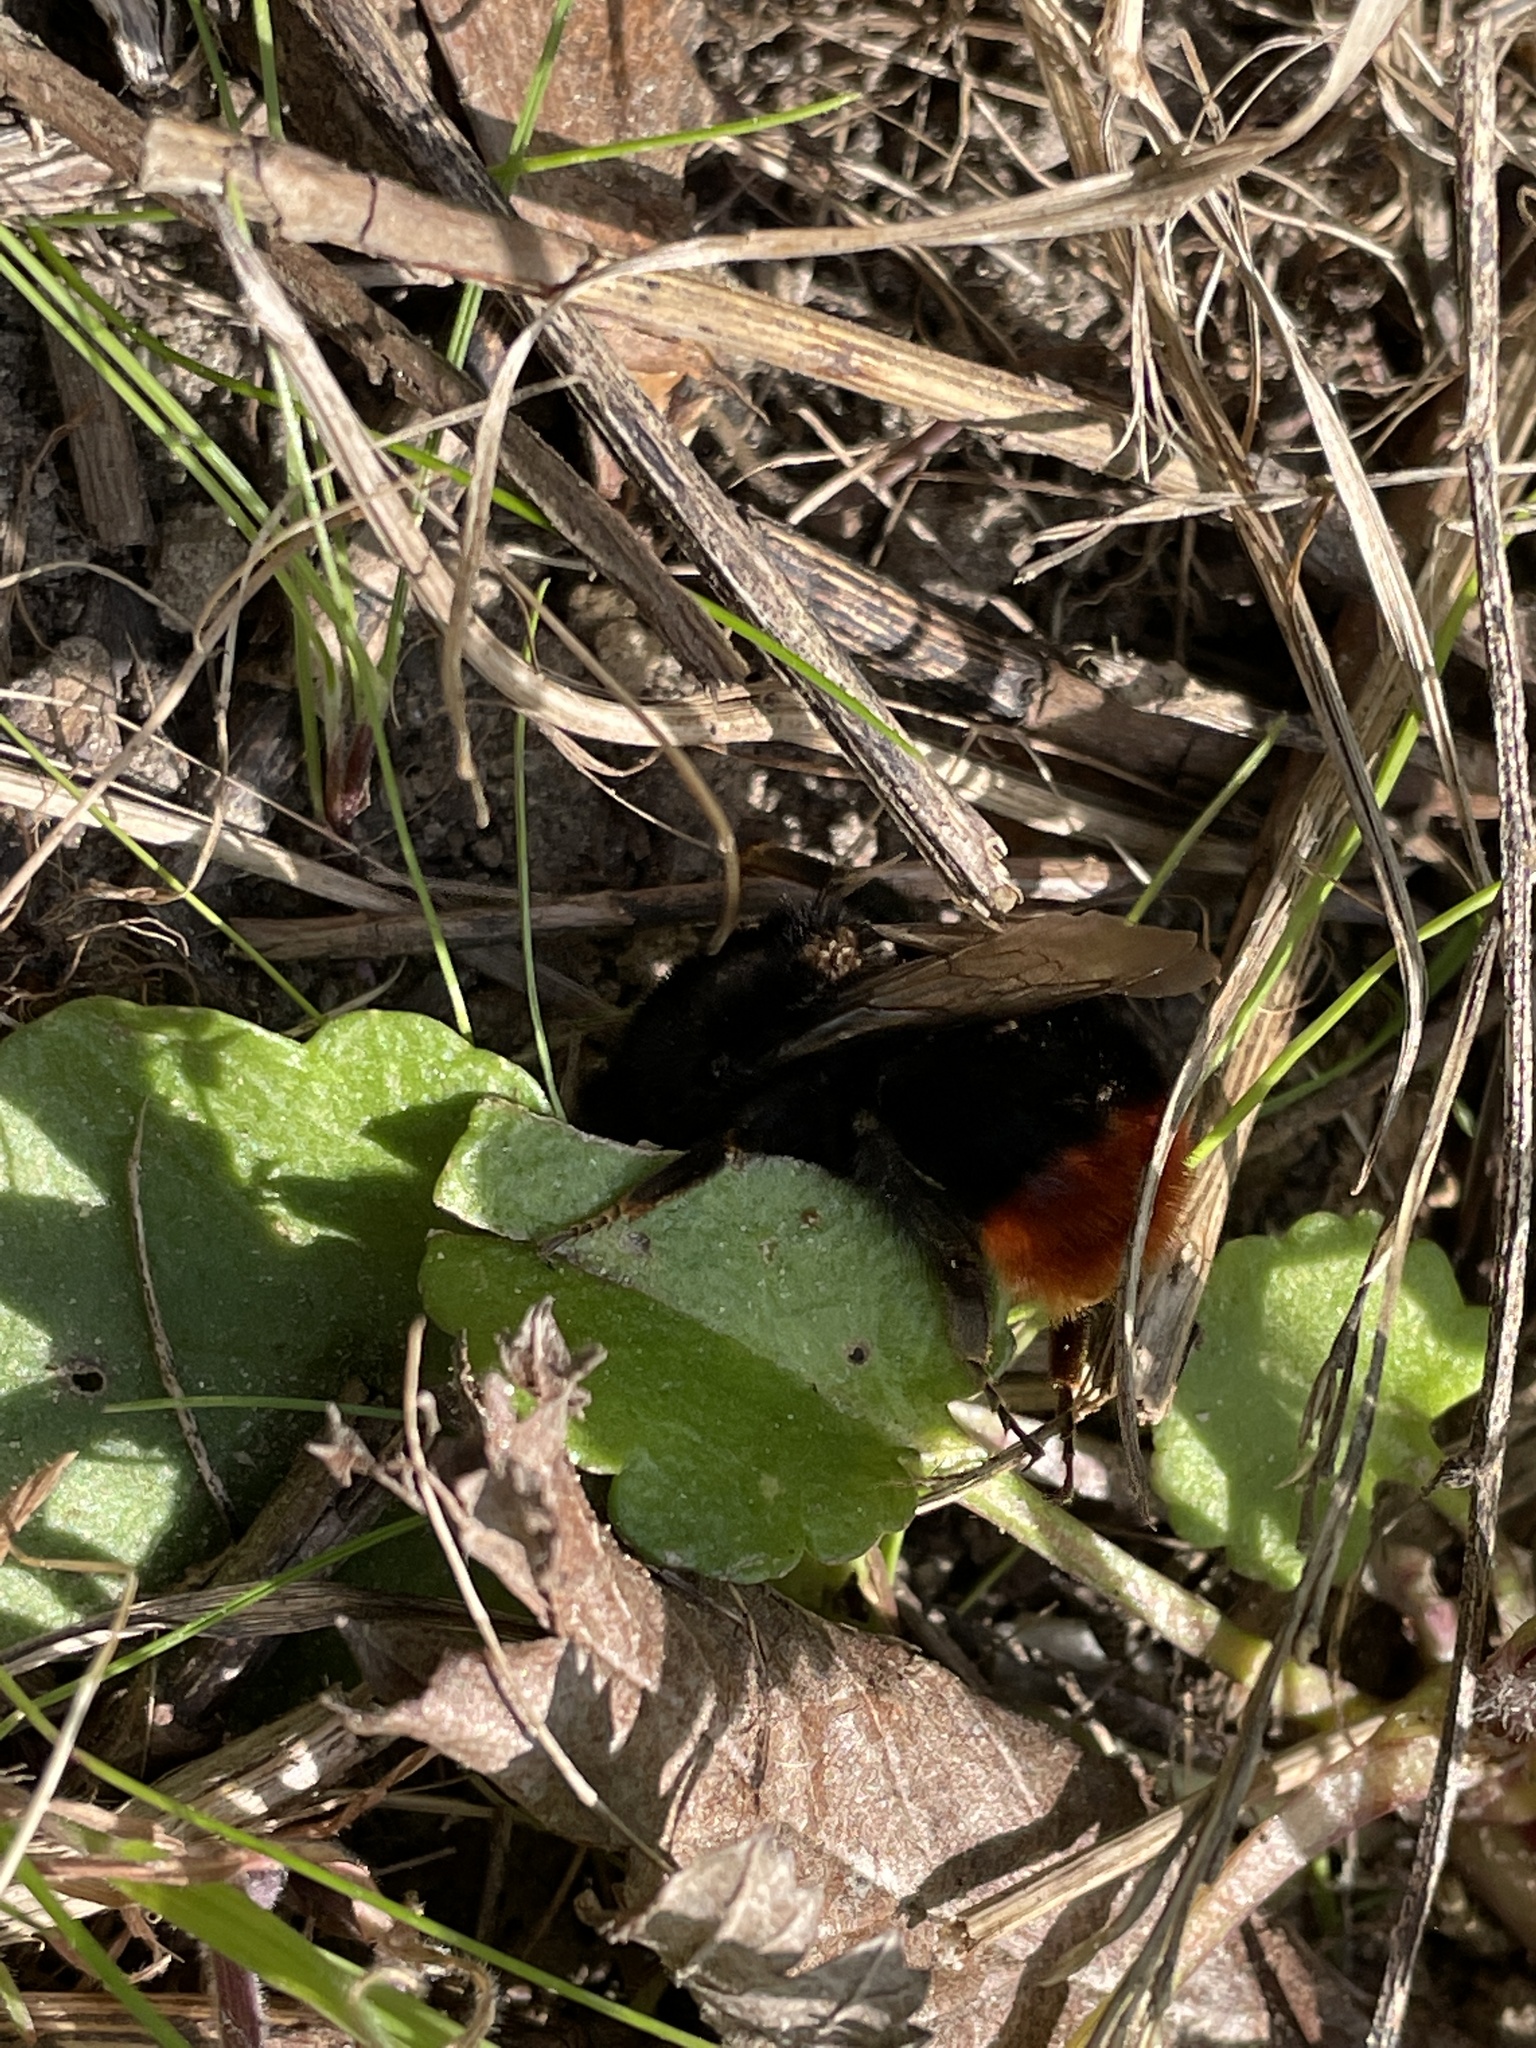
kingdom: Animalia
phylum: Arthropoda
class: Insecta
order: Hymenoptera
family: Apidae
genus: Bombus
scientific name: Bombus lapidarius
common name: Large red-tailed humble-bee
